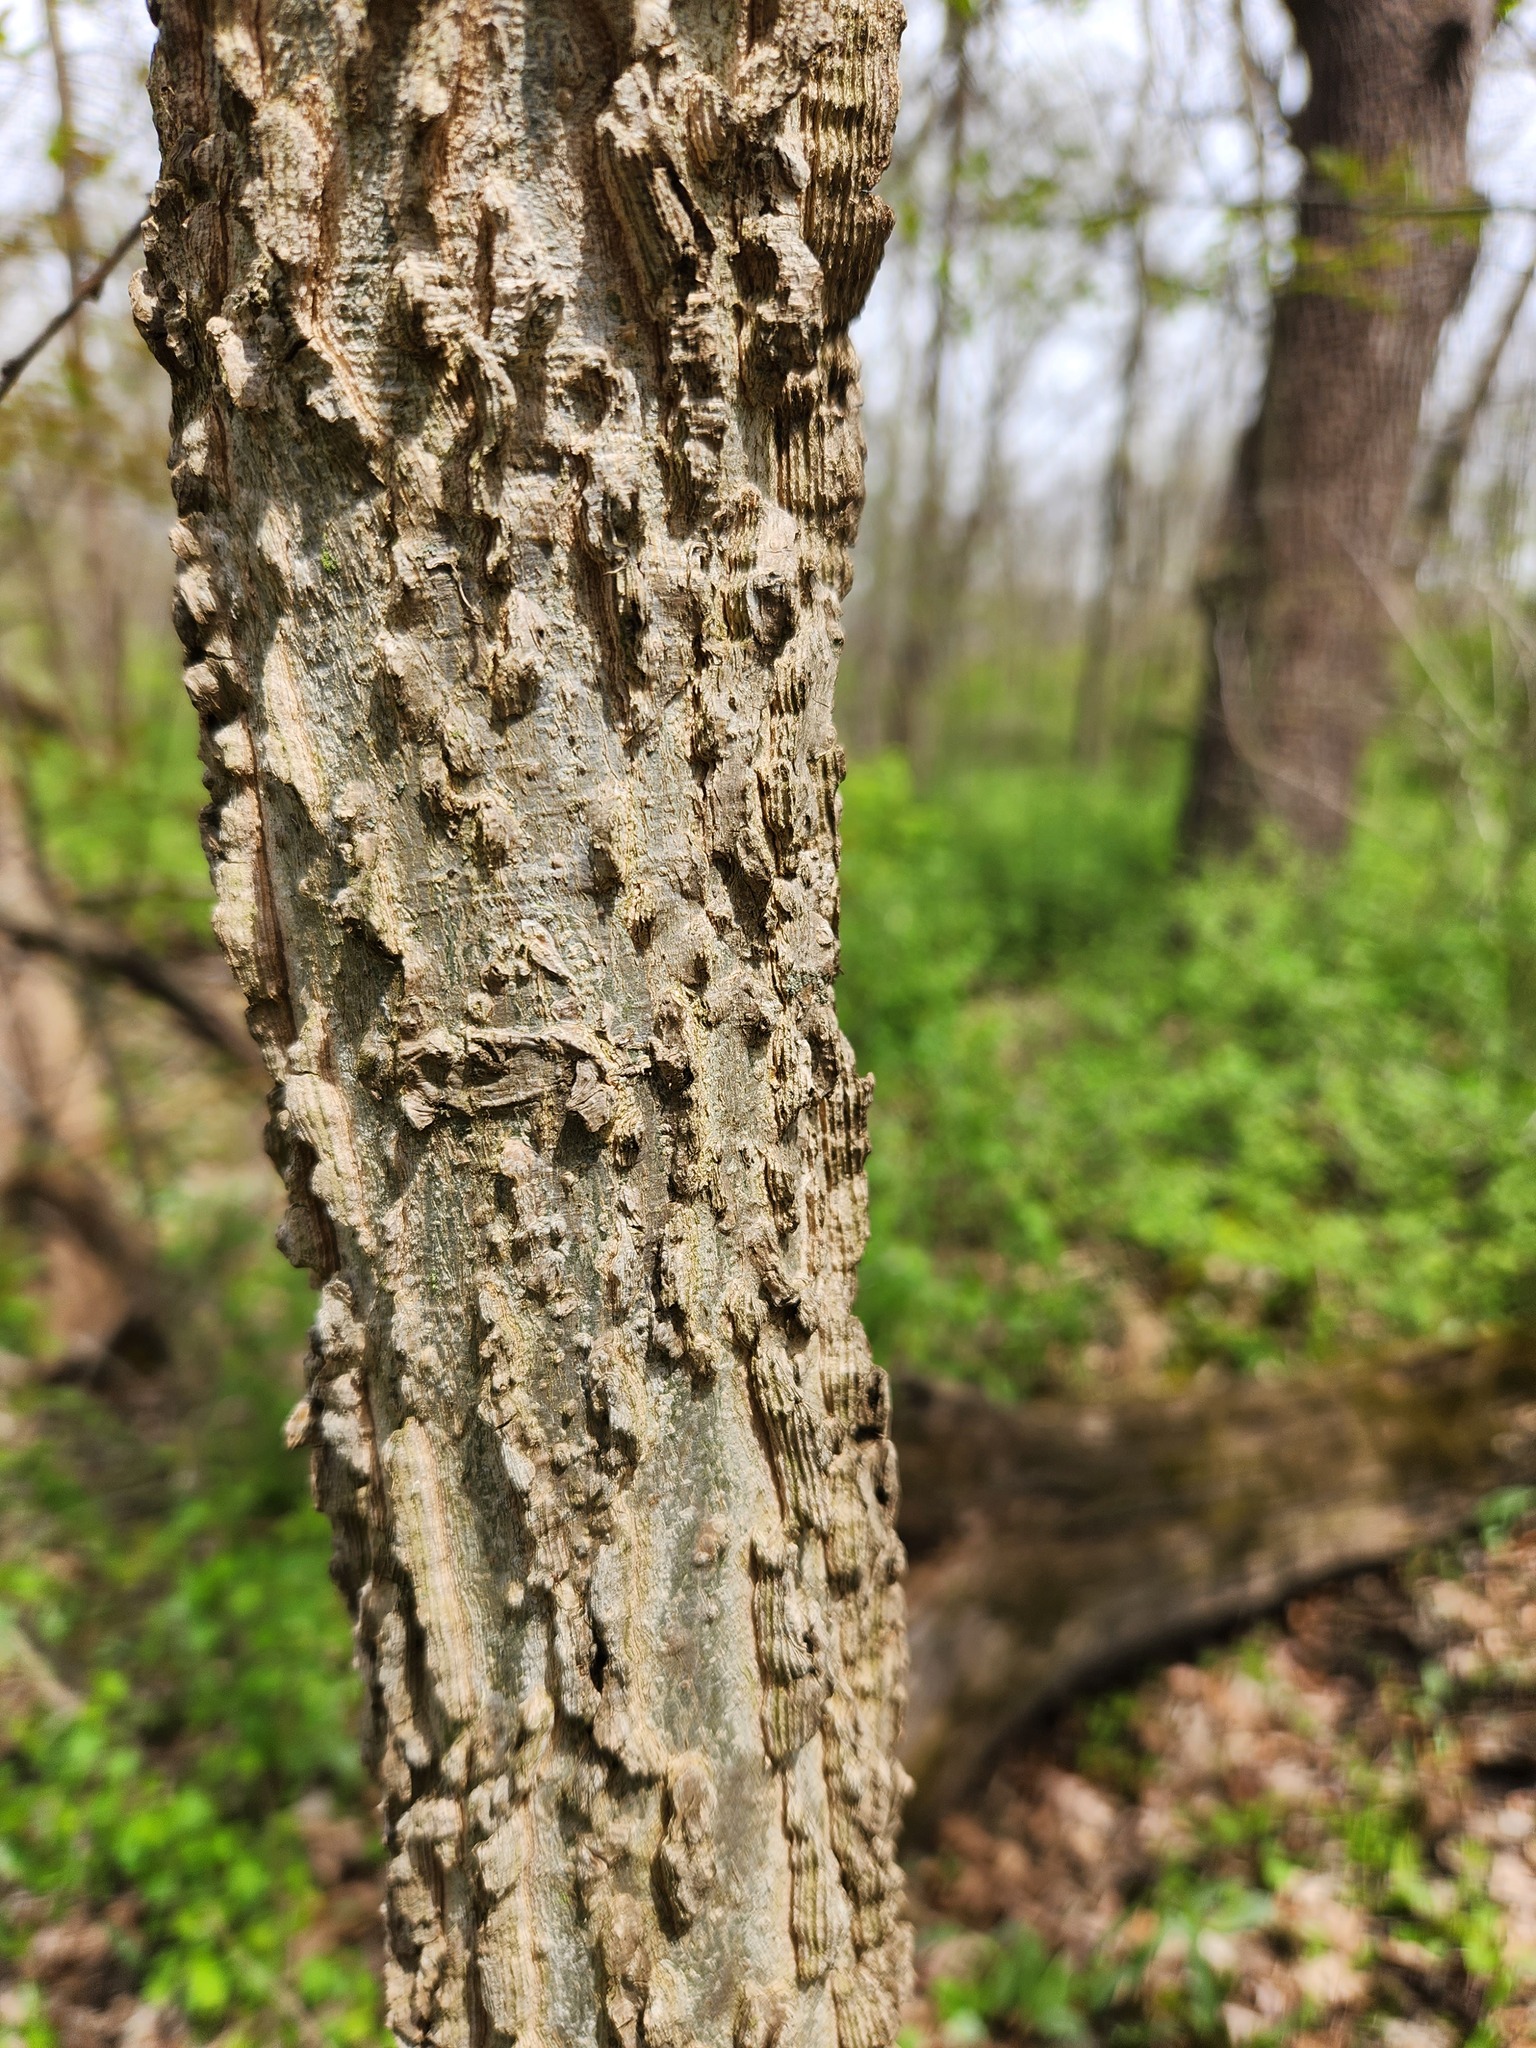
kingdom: Plantae
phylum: Tracheophyta
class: Magnoliopsida
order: Rosales
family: Cannabaceae
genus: Celtis
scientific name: Celtis occidentalis
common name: Common hackberry
